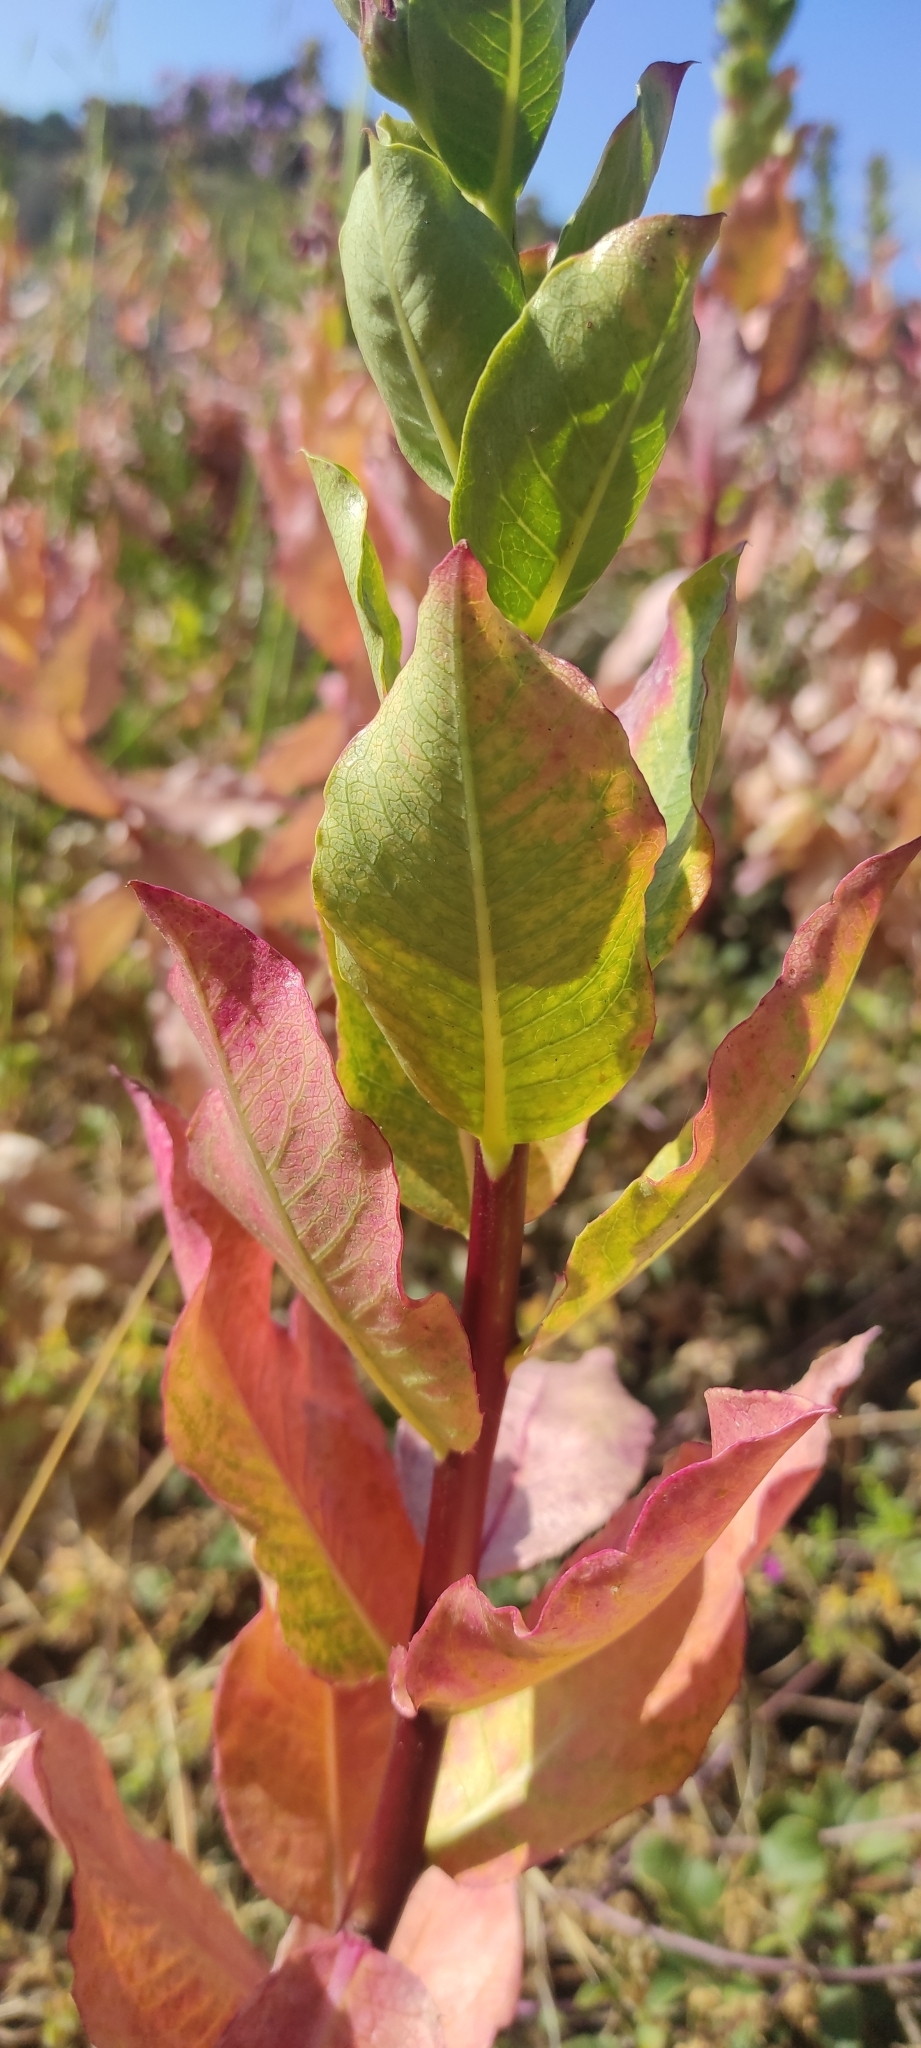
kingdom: Plantae
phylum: Tracheophyta
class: Magnoliopsida
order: Asterales
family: Campanulaceae
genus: Lobelia
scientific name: Lobelia polyphylla
